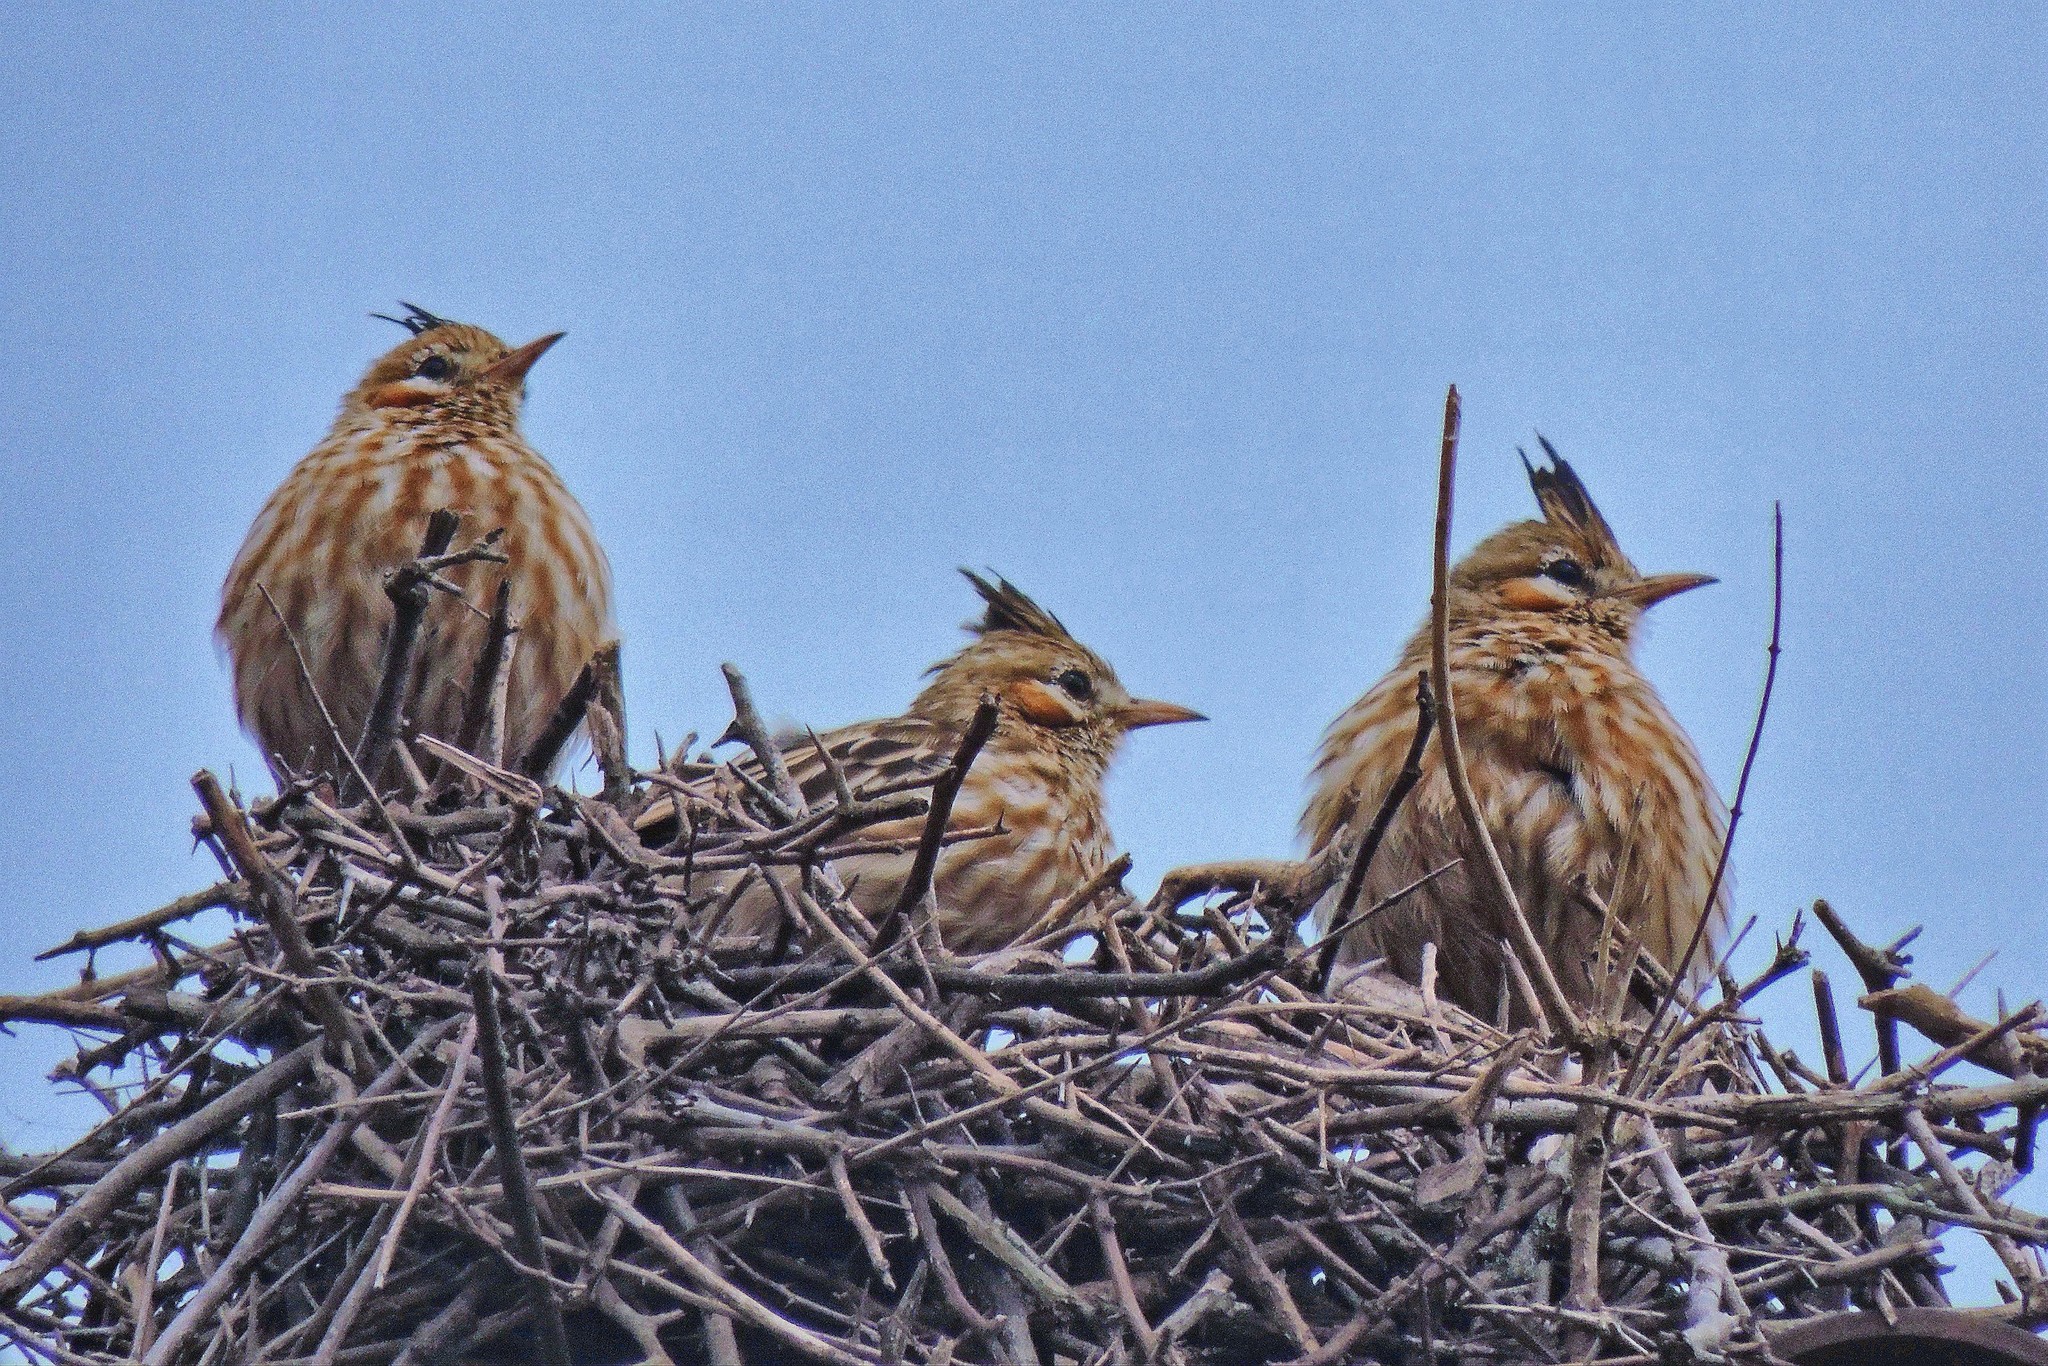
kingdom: Animalia
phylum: Chordata
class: Aves
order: Passeriformes
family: Furnariidae
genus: Coryphistera
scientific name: Coryphistera alaudina
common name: Lark-like brushrunner
